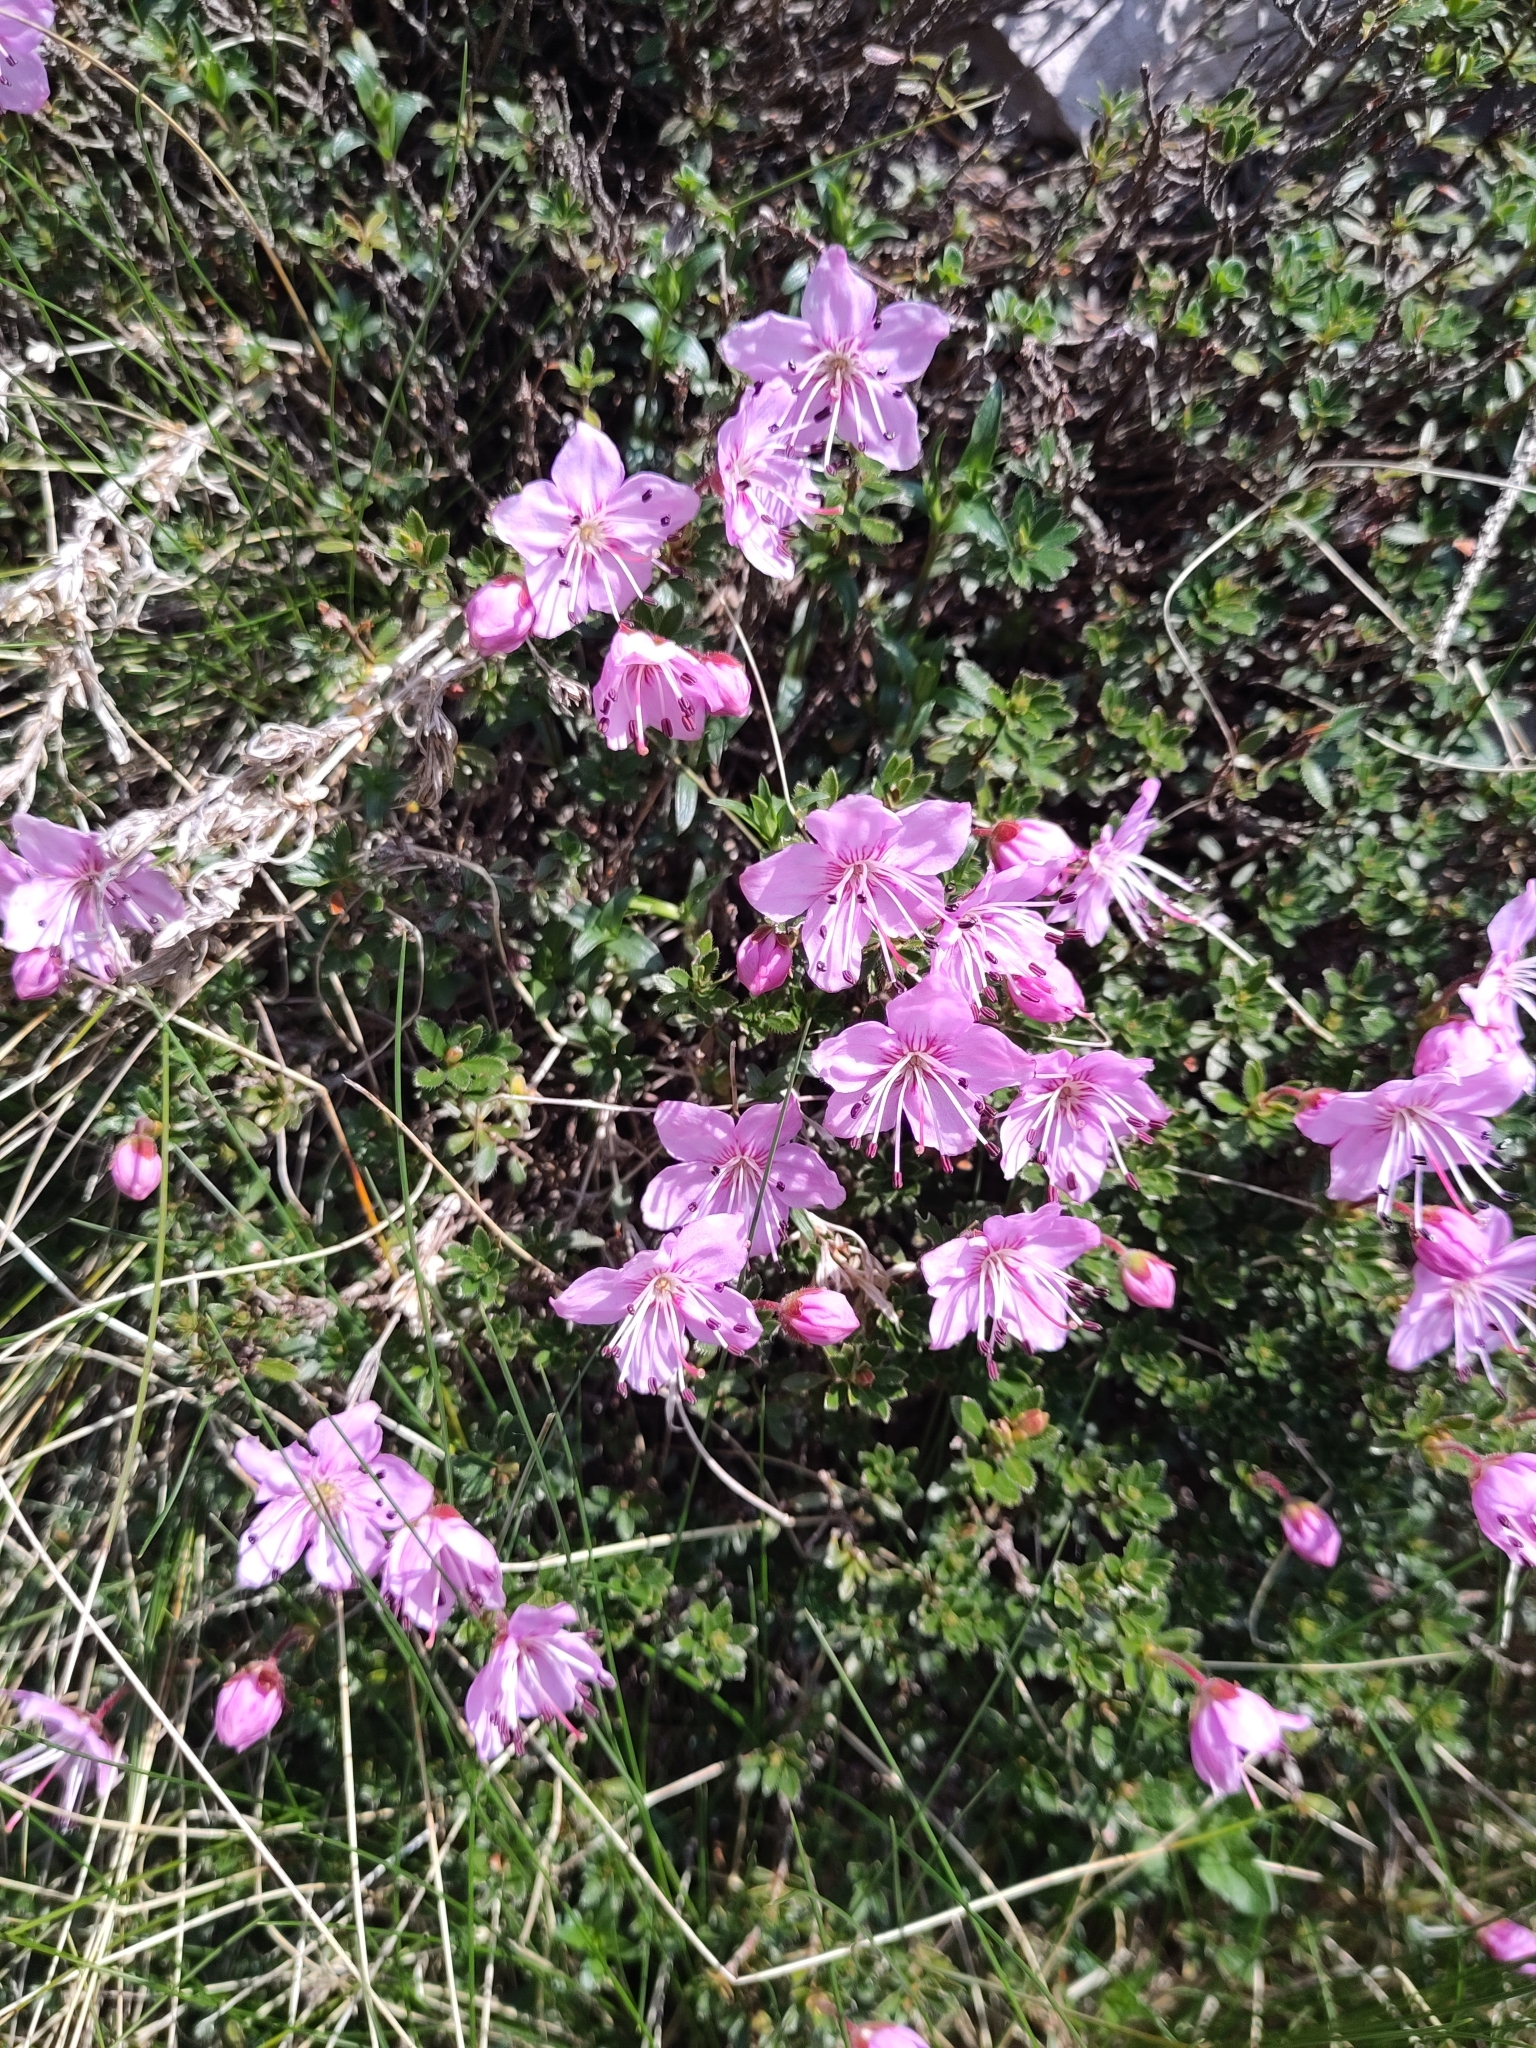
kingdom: Plantae
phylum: Tracheophyta
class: Magnoliopsida
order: Ericales
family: Ericaceae
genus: Rhodothamnus
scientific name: Rhodothamnus chamaecistus
